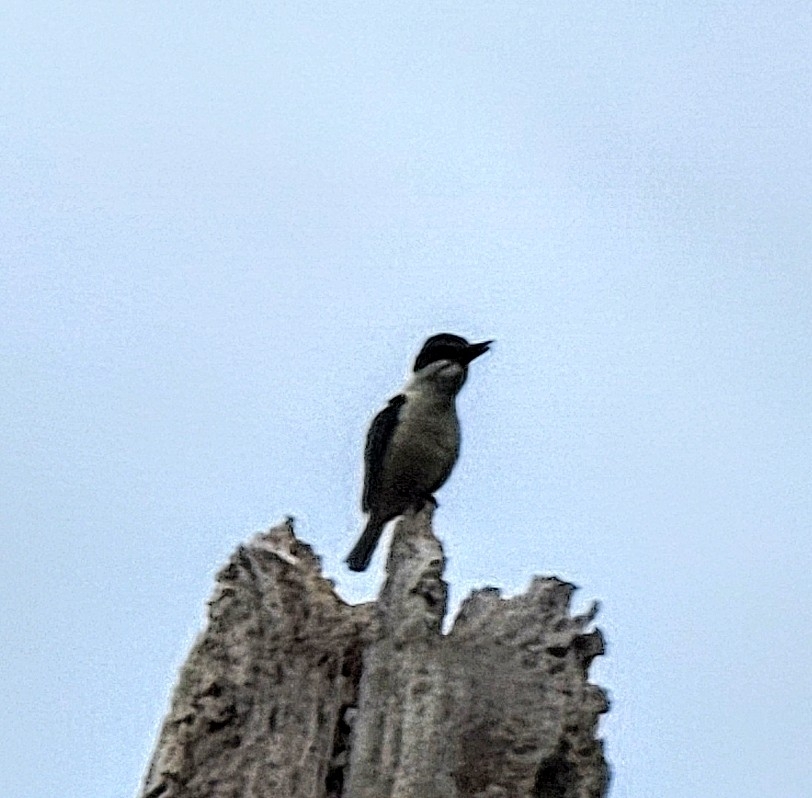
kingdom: Animalia
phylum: Chordata
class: Aves
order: Coraciiformes
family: Alcedinidae
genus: Todiramphus
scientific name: Todiramphus sanctus
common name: Sacred kingfisher
